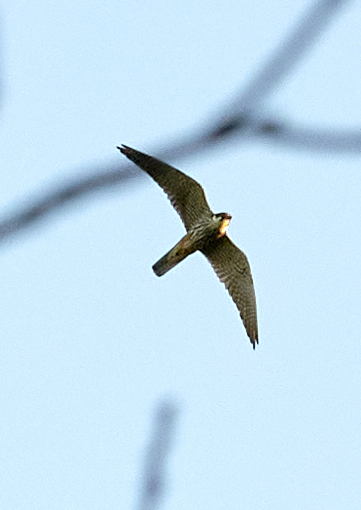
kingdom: Animalia
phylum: Chordata
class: Aves
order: Falconiformes
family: Falconidae
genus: Falco
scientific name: Falco subbuteo
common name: Eurasian hobby
